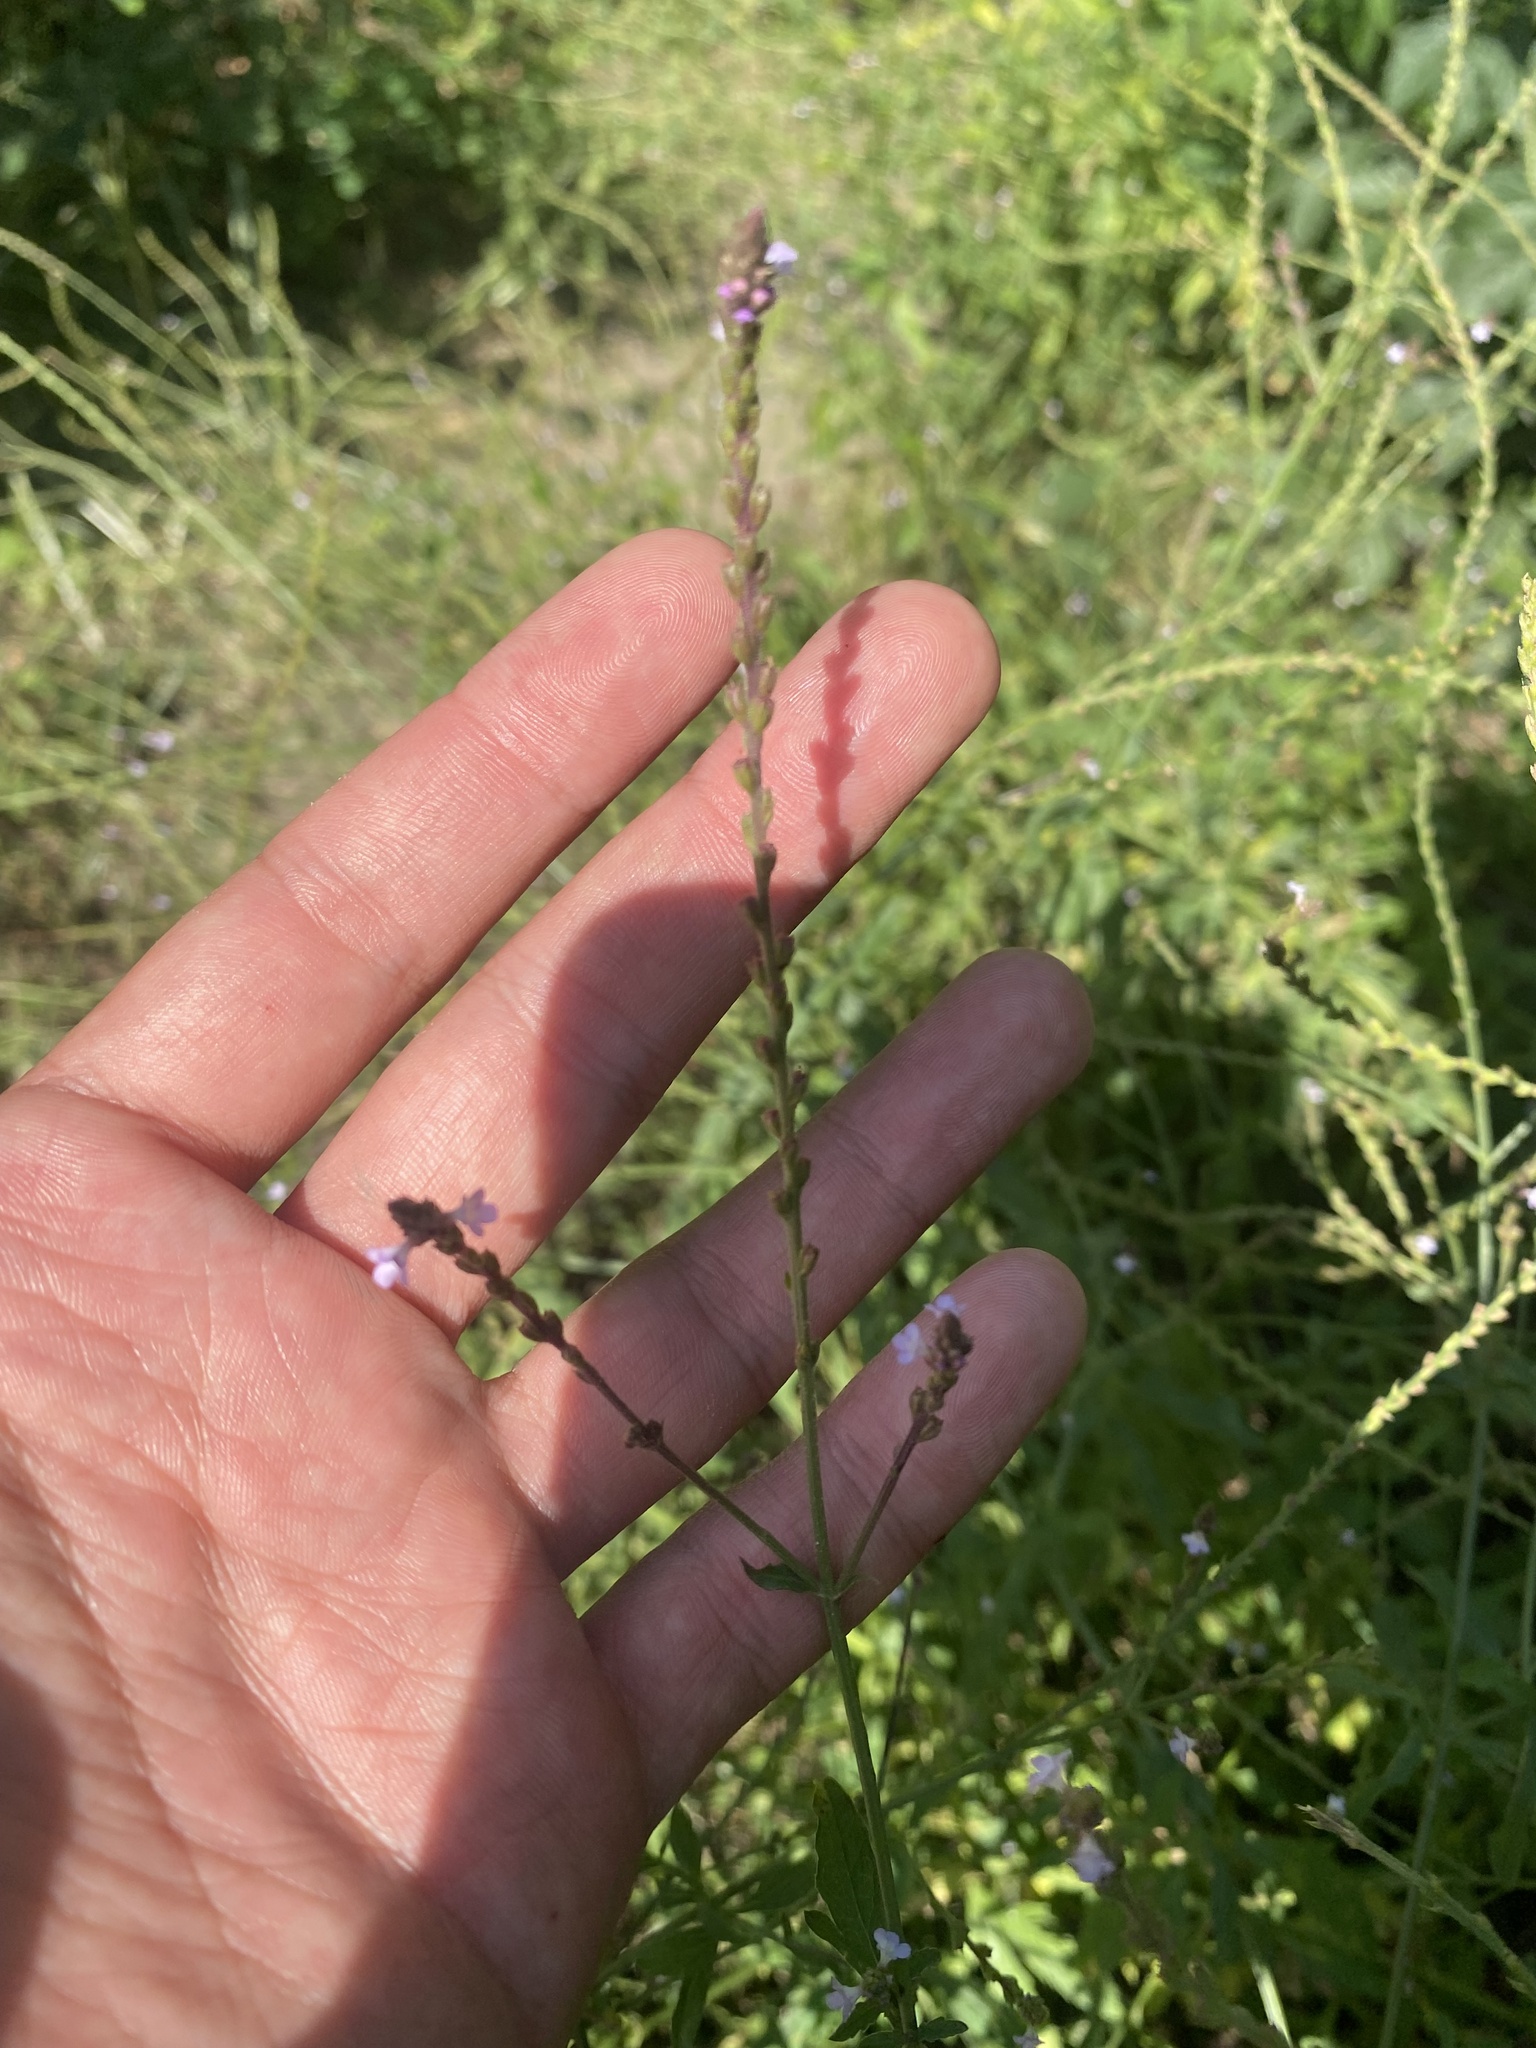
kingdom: Plantae
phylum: Tracheophyta
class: Magnoliopsida
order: Lamiales
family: Verbenaceae
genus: Verbena
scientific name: Verbena officinalis
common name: Vervain
